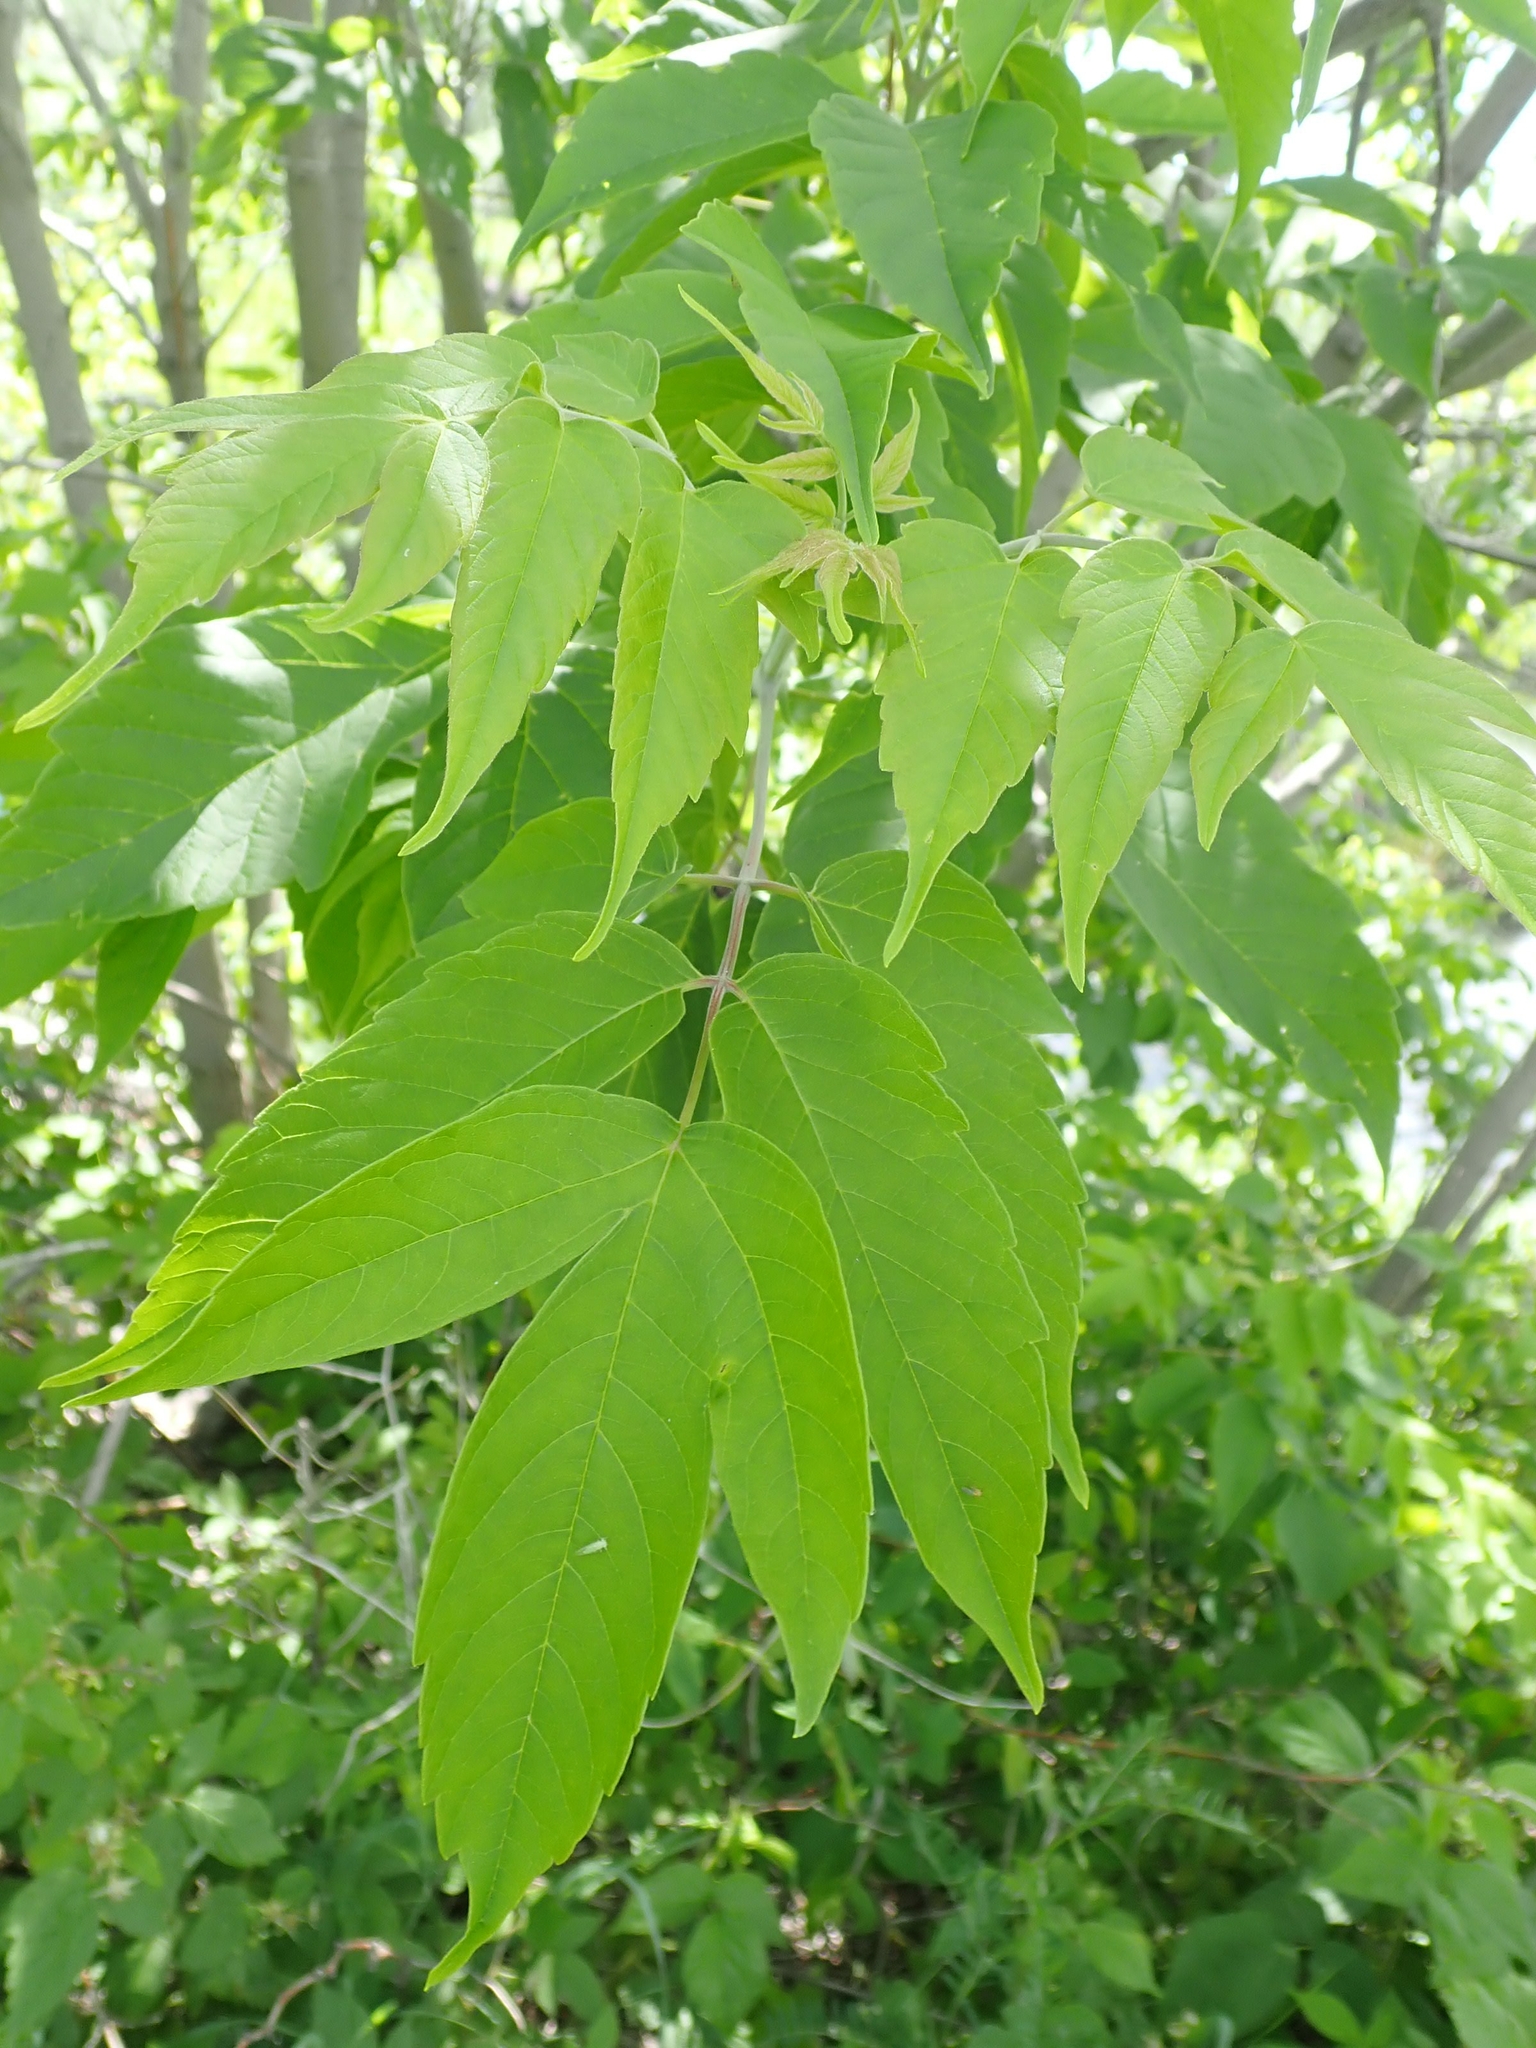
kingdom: Plantae
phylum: Tracheophyta
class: Magnoliopsida
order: Sapindales
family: Sapindaceae
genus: Acer
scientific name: Acer negundo
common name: Ashleaf maple
